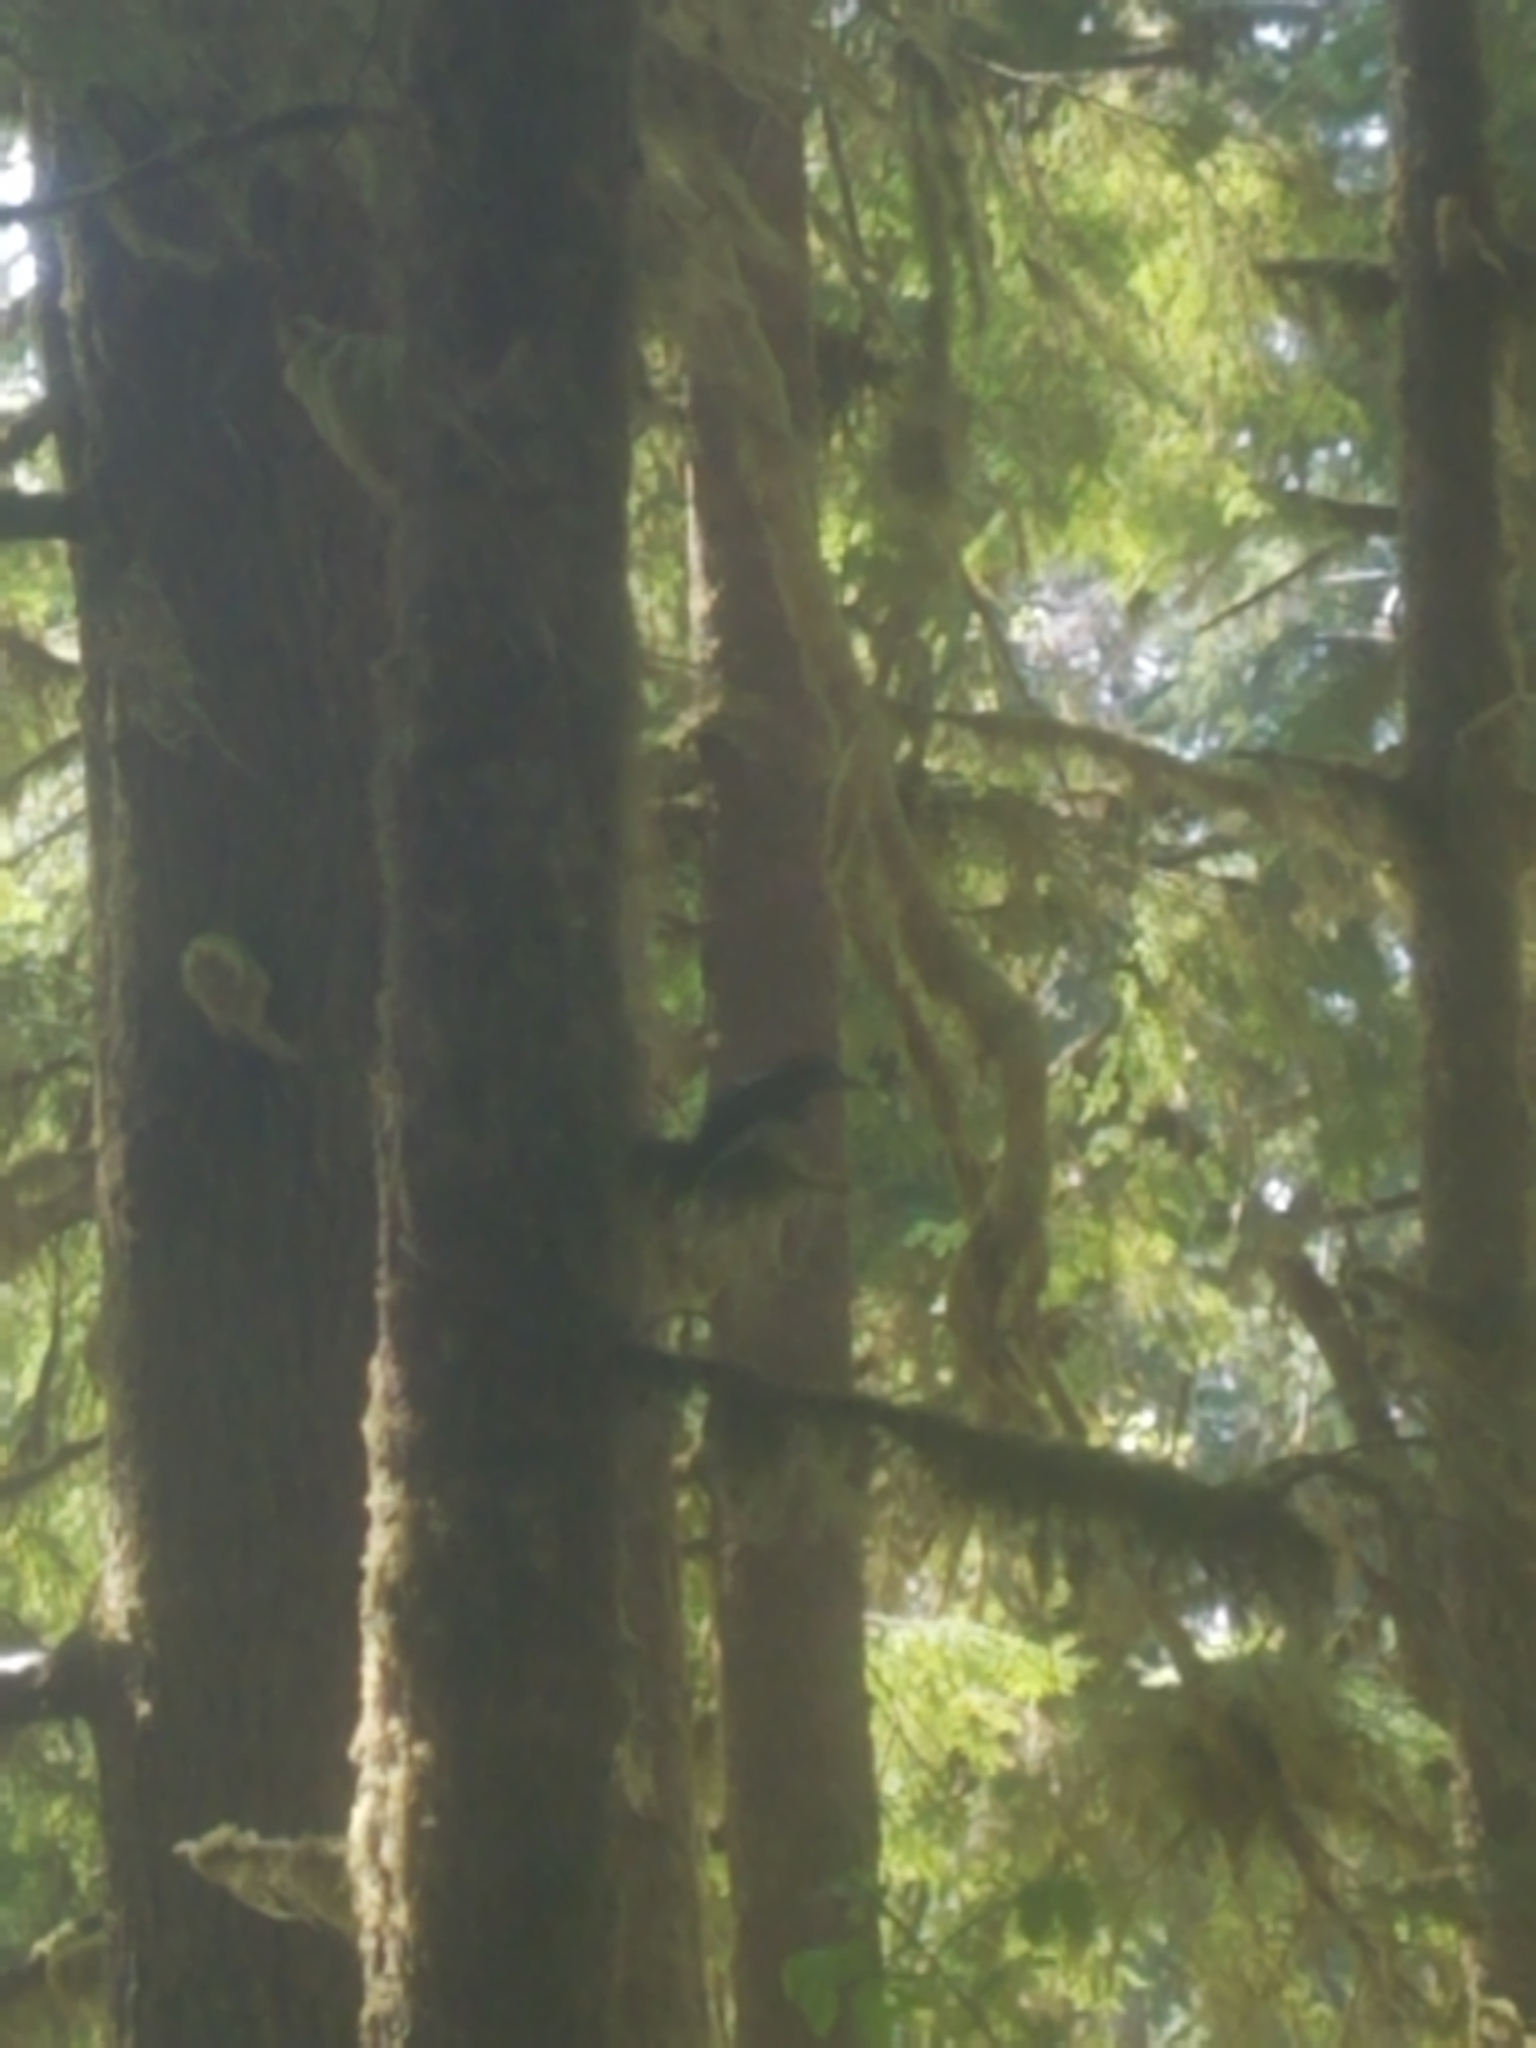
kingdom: Animalia
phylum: Chordata
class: Aves
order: Piciformes
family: Picidae
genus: Leuconotopicus
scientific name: Leuconotopicus villosus
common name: Hairy woodpecker
